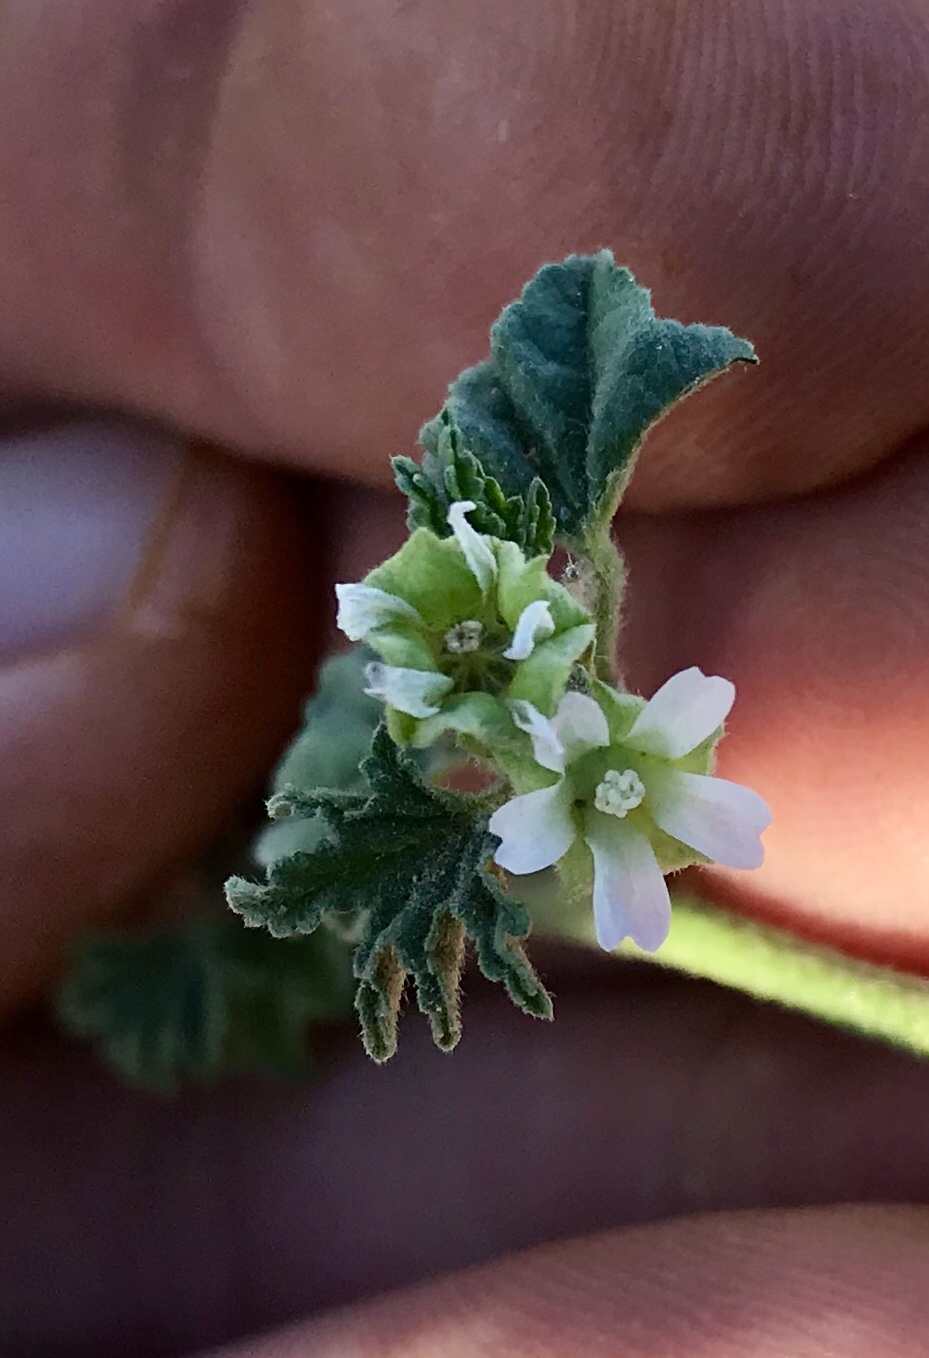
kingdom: Plantae
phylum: Tracheophyta
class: Magnoliopsida
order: Malvales
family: Malvaceae
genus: Malva
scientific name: Malva parviflora
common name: Least mallow
